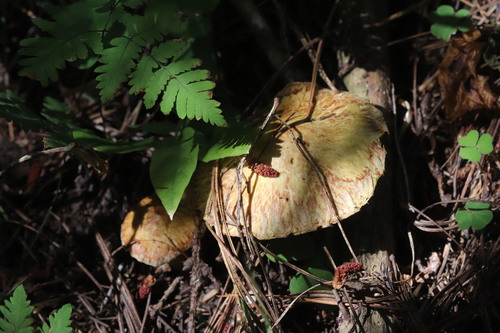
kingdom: Fungi
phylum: Basidiomycota
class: Agaricomycetes
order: Boletales
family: Suillaceae
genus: Suillus
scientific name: Suillus americanus
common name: Chicken fat mushroom
